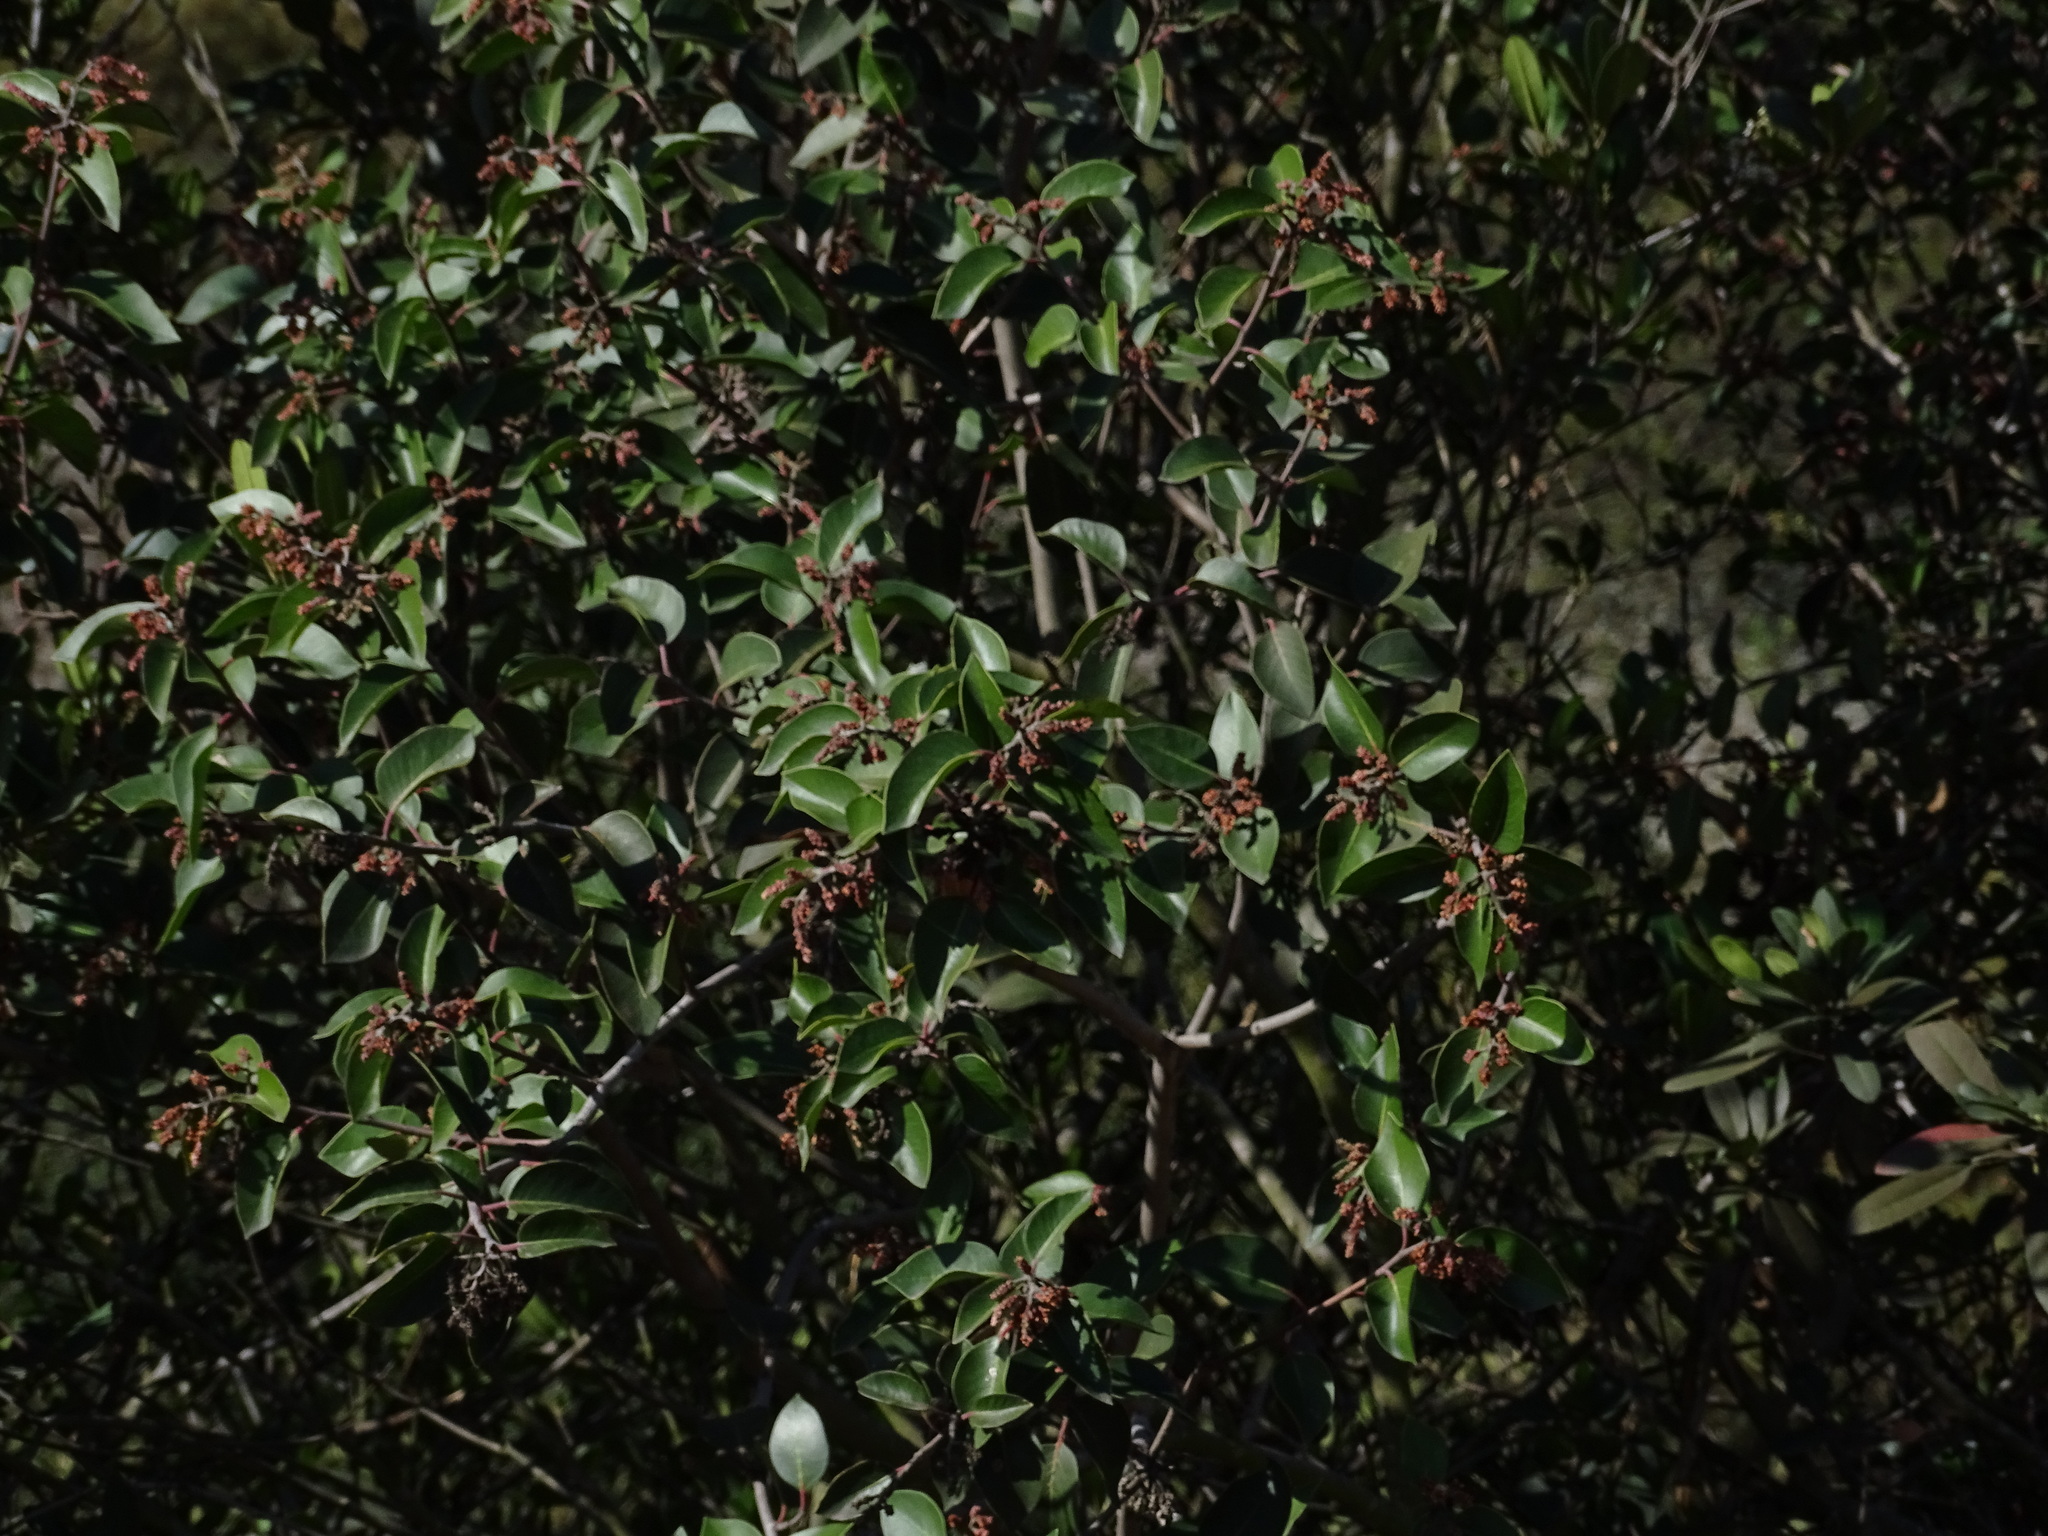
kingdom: Plantae
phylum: Tracheophyta
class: Magnoliopsida
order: Sapindales
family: Anacardiaceae
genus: Rhus
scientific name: Rhus ovata
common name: Sugar sumac
